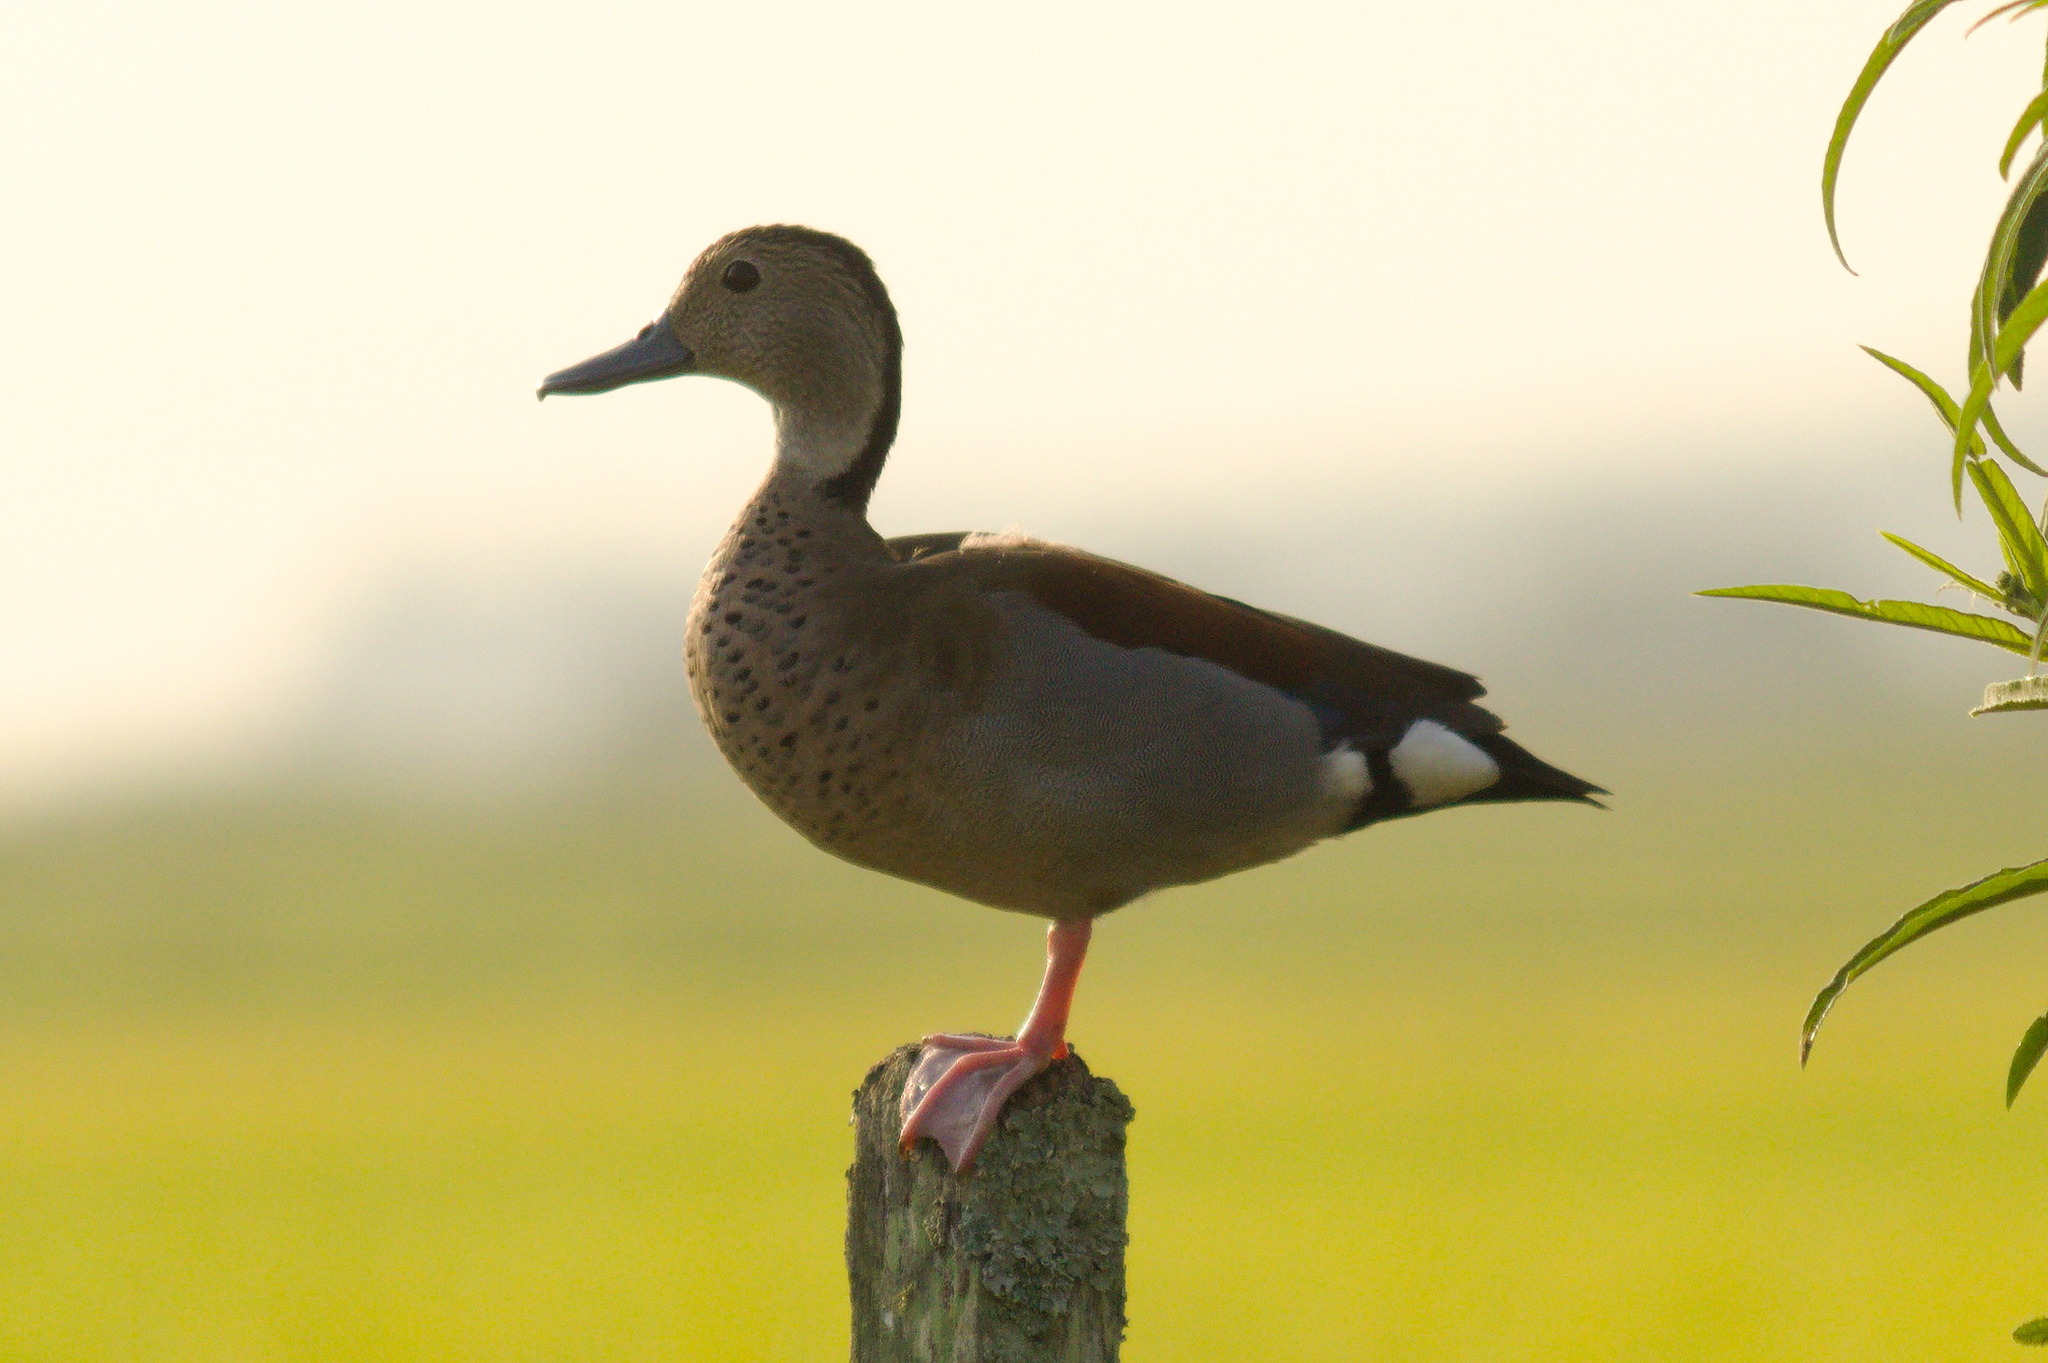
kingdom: Animalia
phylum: Chordata
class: Aves
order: Anseriformes
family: Anatidae
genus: Callonetta
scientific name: Callonetta leucophrys
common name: Ringed teal
